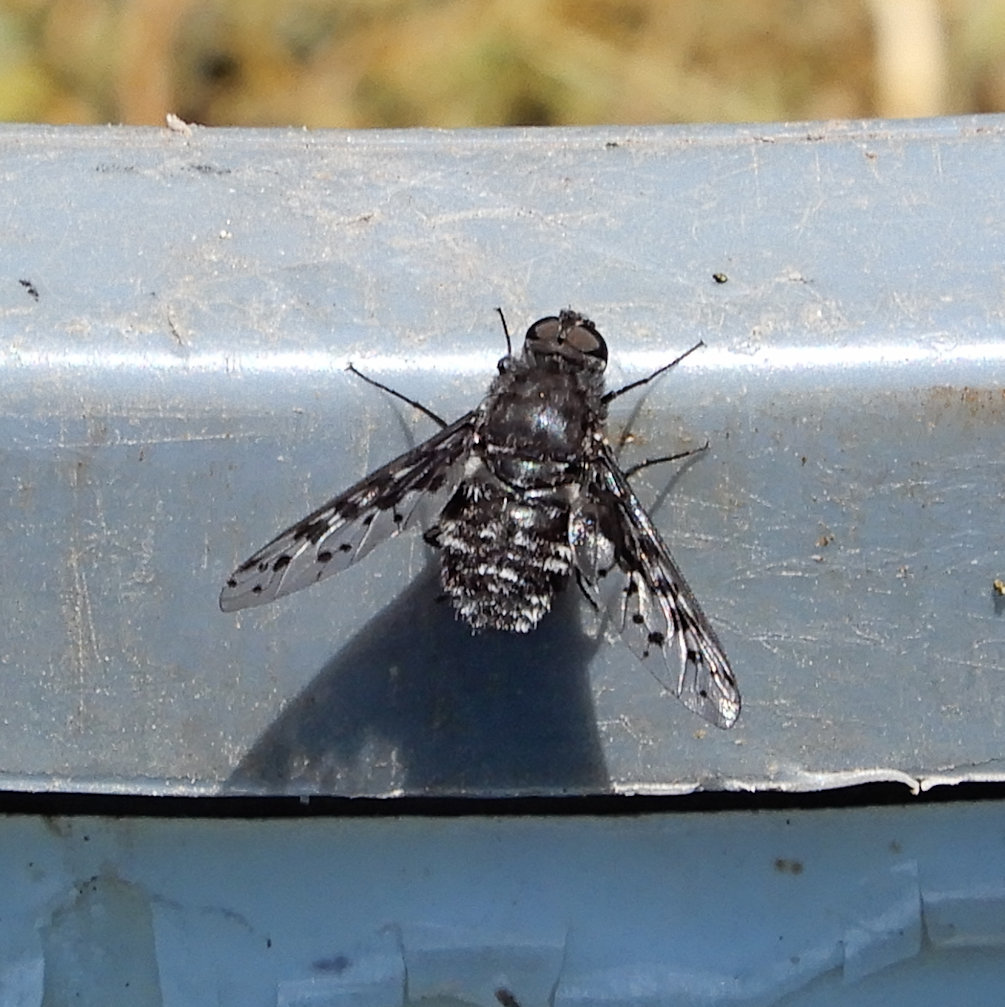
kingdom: Animalia
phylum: Arthropoda
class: Insecta
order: Diptera
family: Bombyliidae
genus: Anthrax
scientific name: Anthrax pluto
